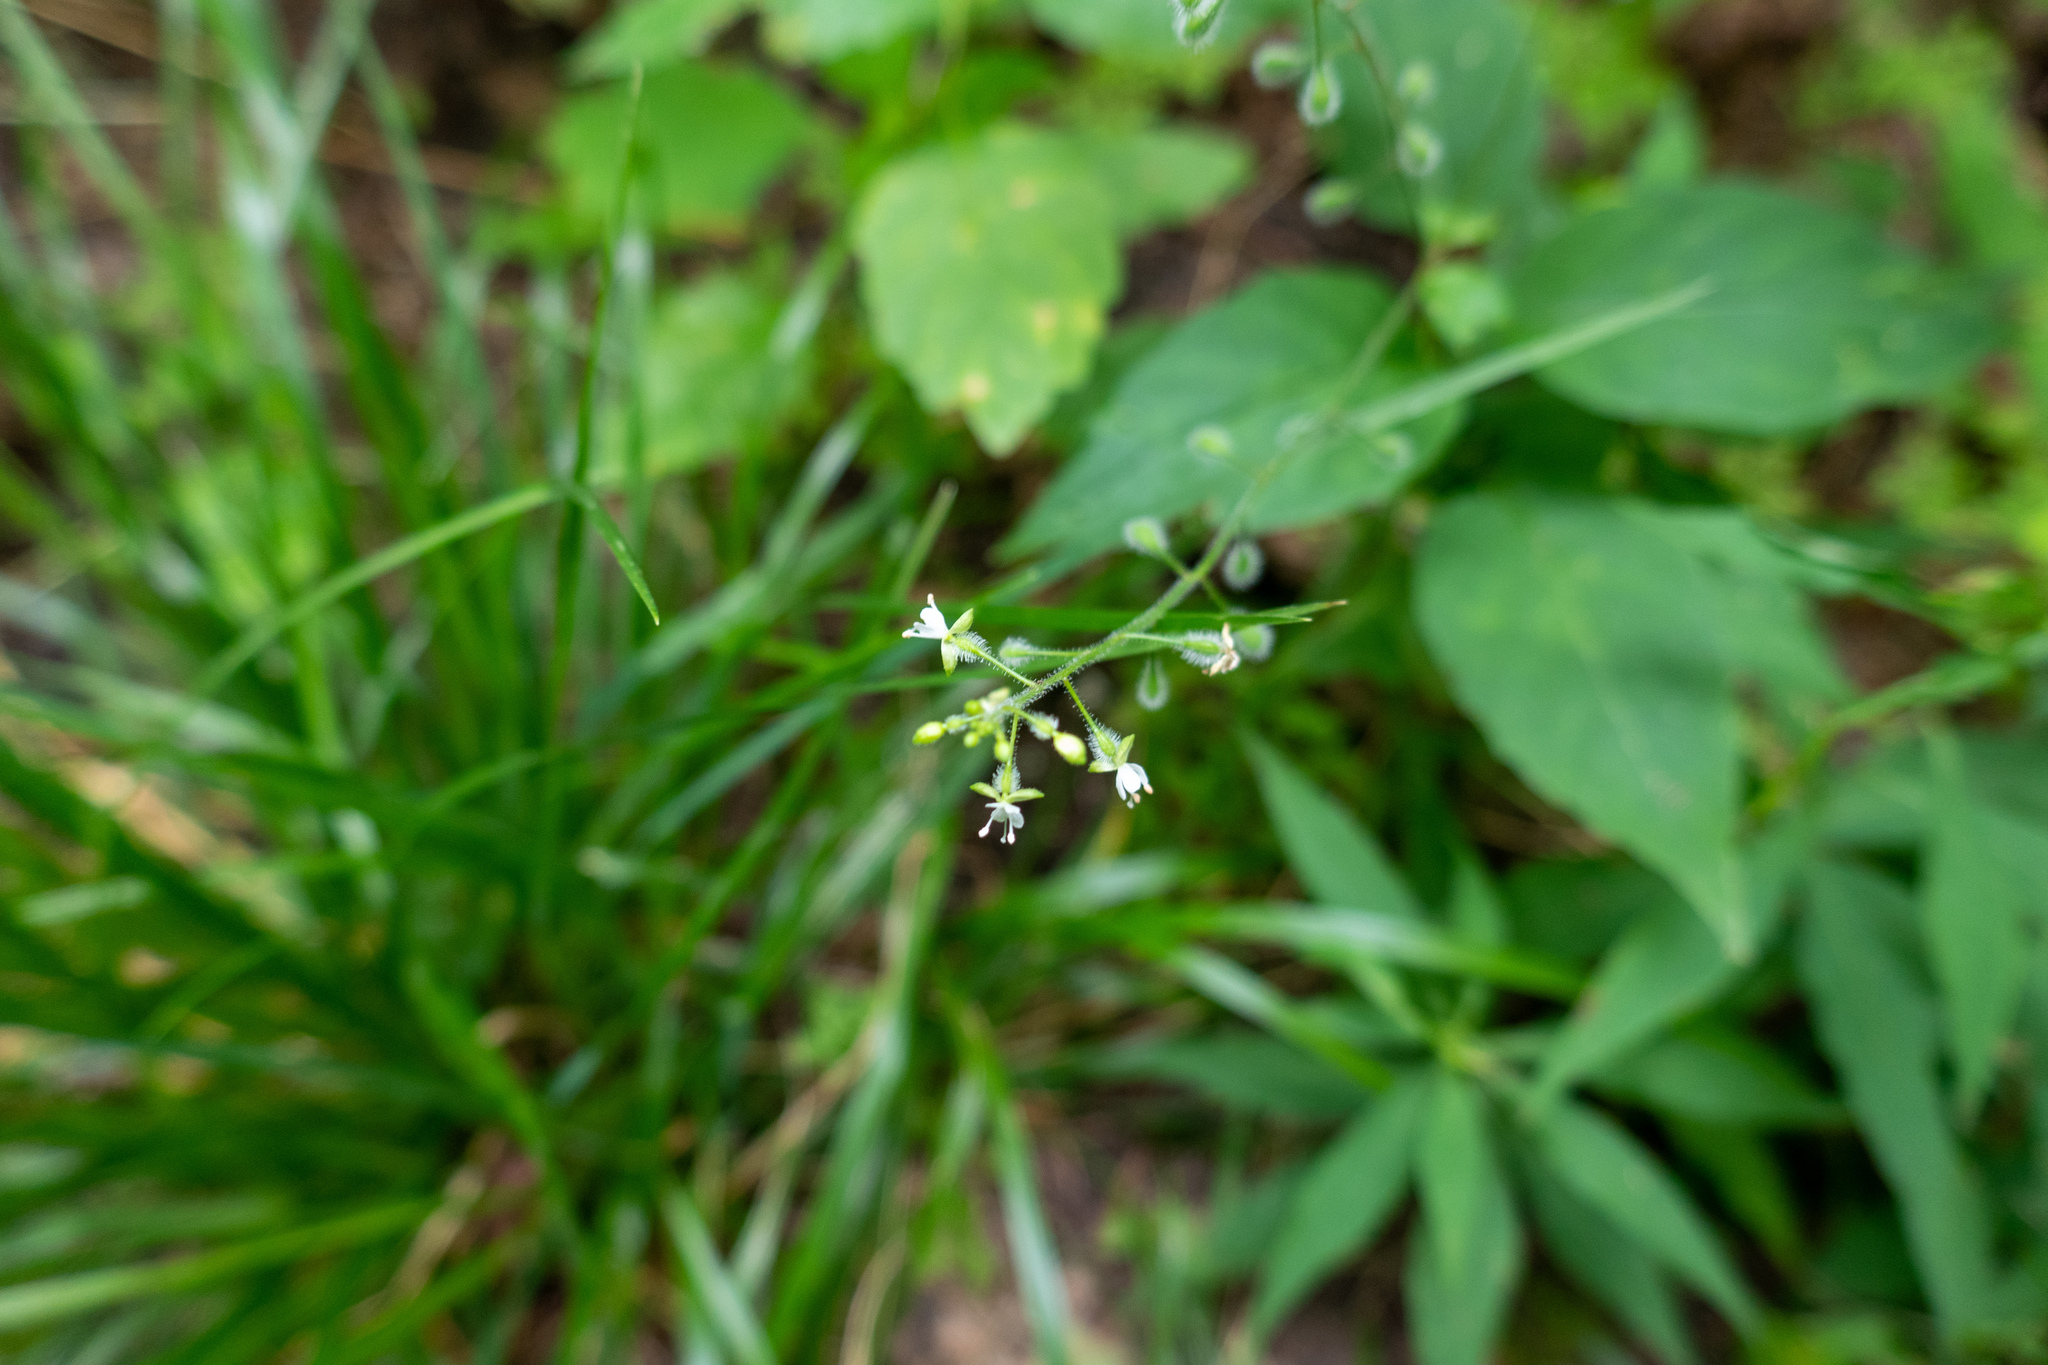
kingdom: Plantae
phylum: Tracheophyta
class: Magnoliopsida
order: Myrtales
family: Onagraceae
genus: Circaea
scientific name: Circaea canadensis
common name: Broad-leaved enchanter's nightshade
